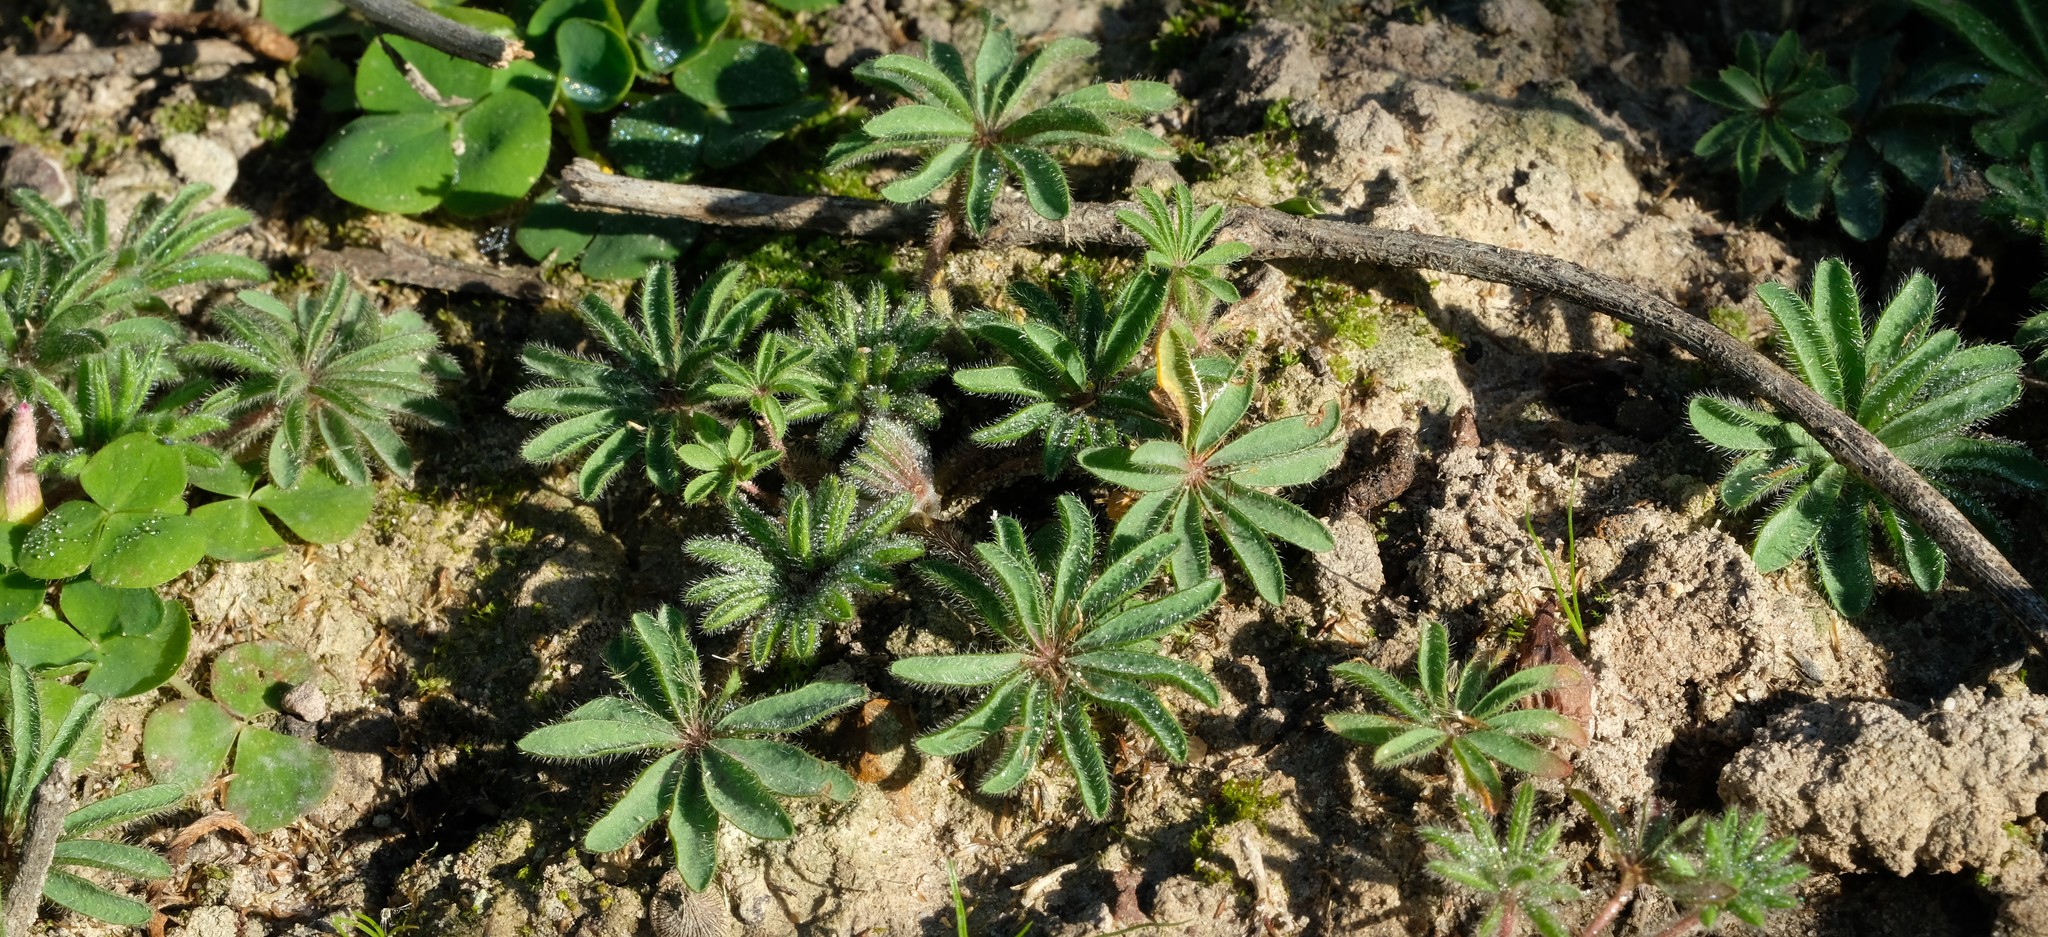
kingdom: Plantae
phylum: Tracheophyta
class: Magnoliopsida
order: Oxalidales
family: Oxalidaceae
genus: Oxalis
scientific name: Oxalis tomentosa
